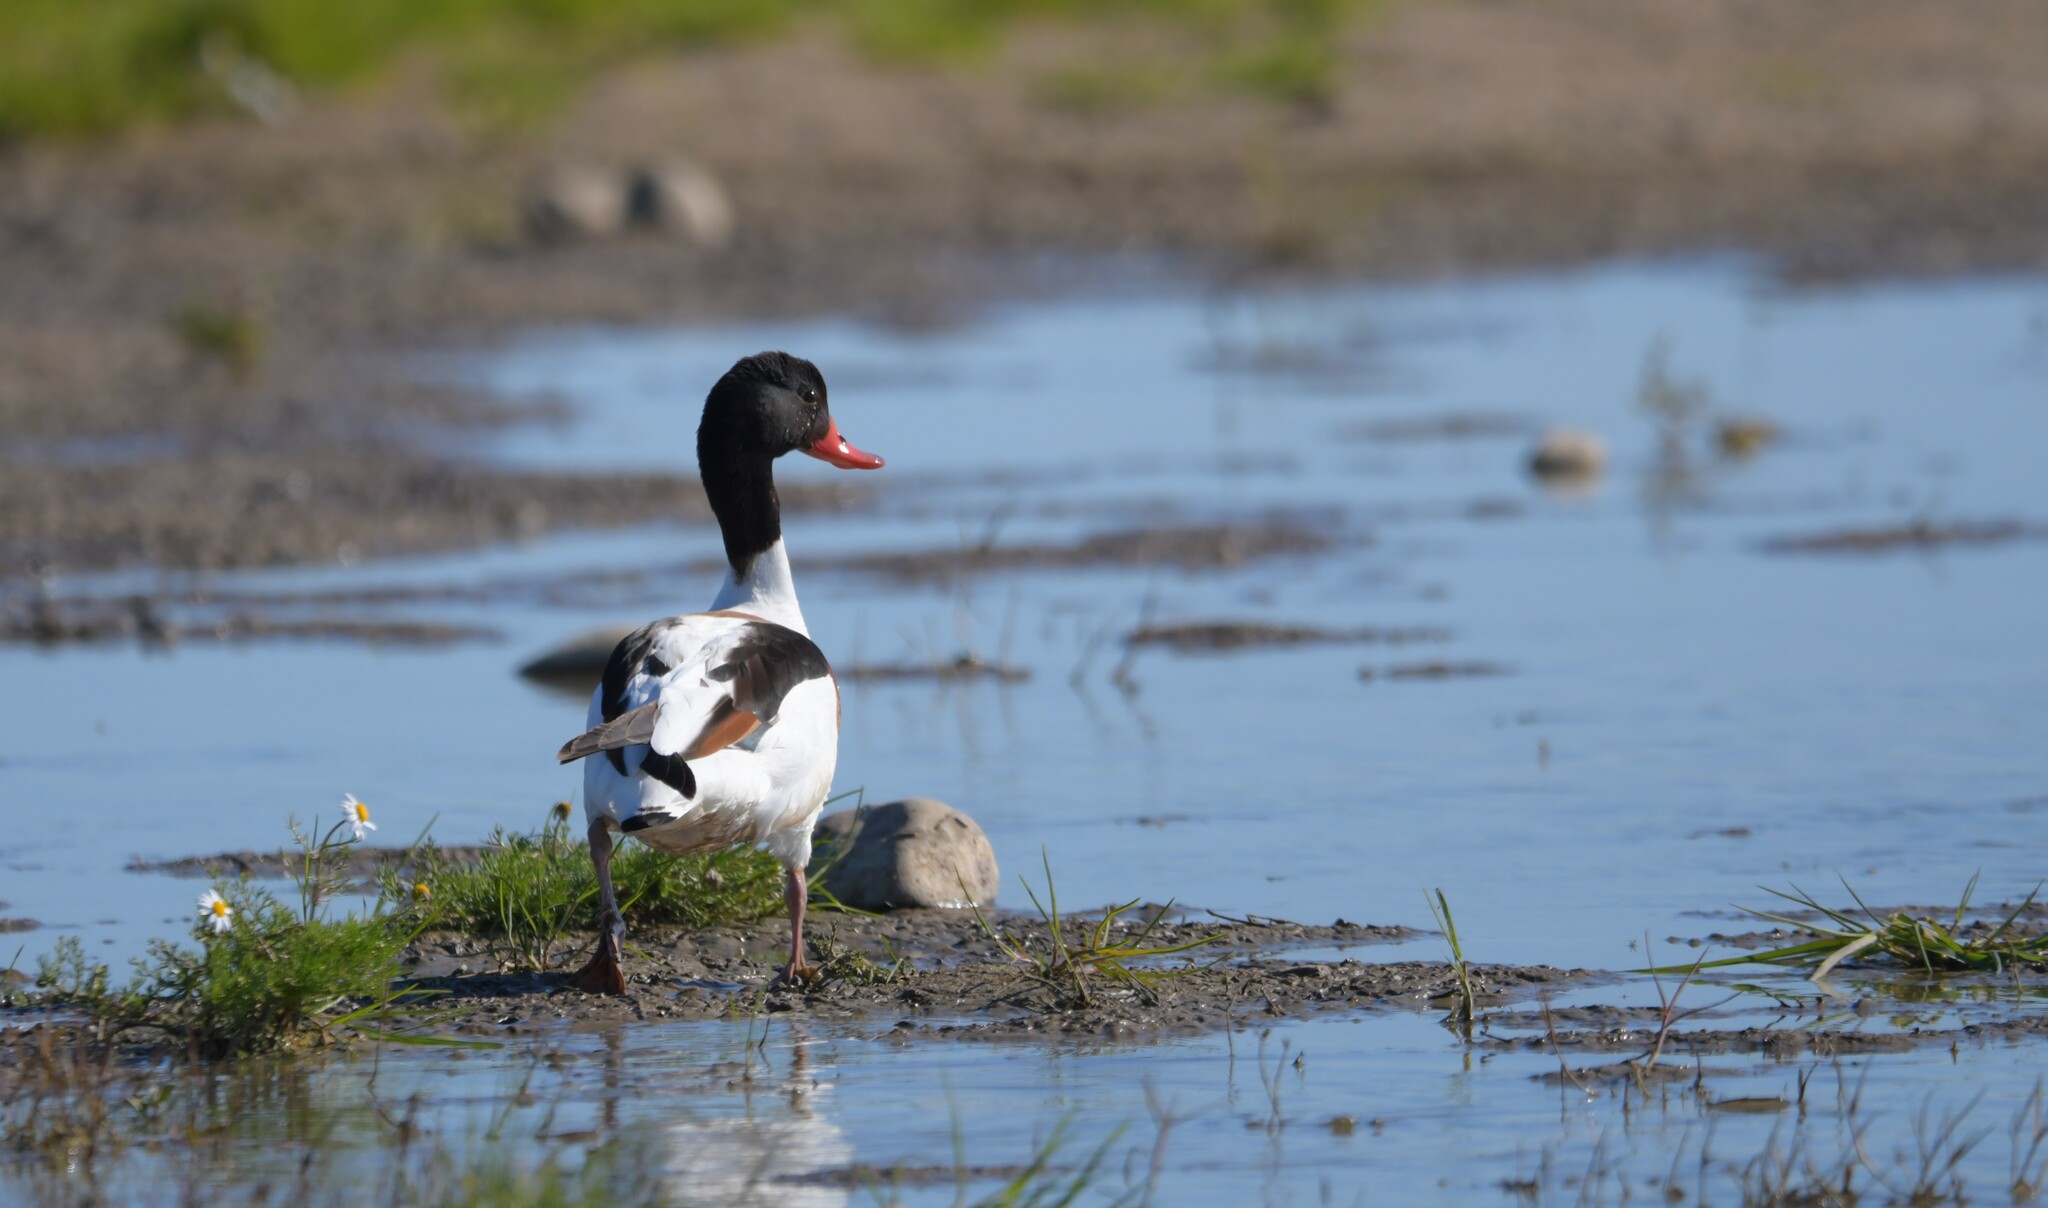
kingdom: Animalia
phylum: Chordata
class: Aves
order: Anseriformes
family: Anatidae
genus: Tadorna
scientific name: Tadorna tadorna
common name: Common shelduck
